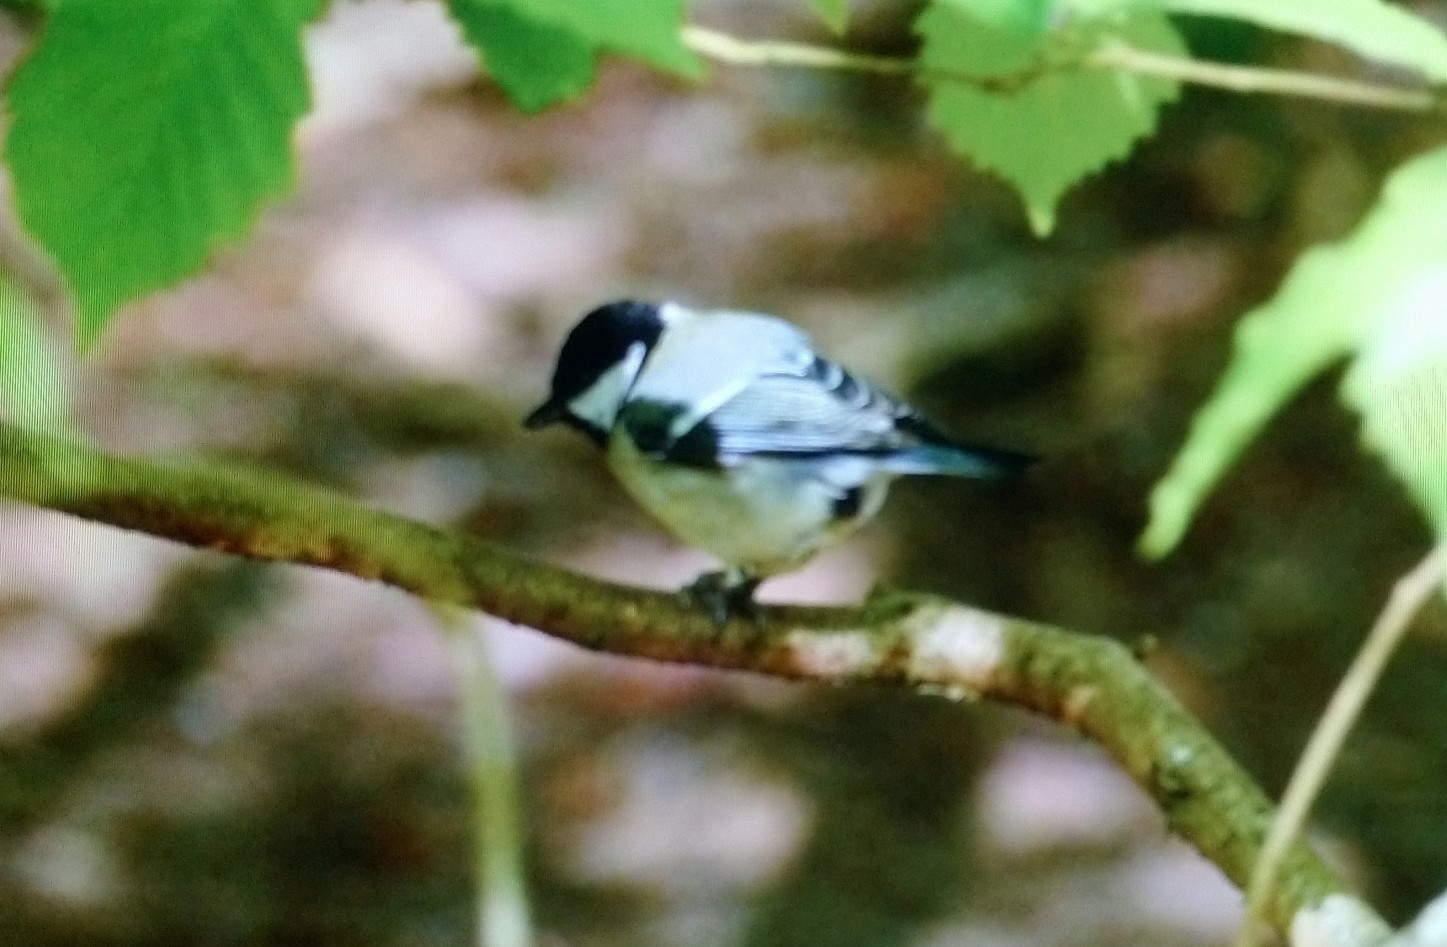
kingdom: Animalia
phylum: Chordata
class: Aves
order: Passeriformes
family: Paridae
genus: Parus
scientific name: Parus major
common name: Great tit
